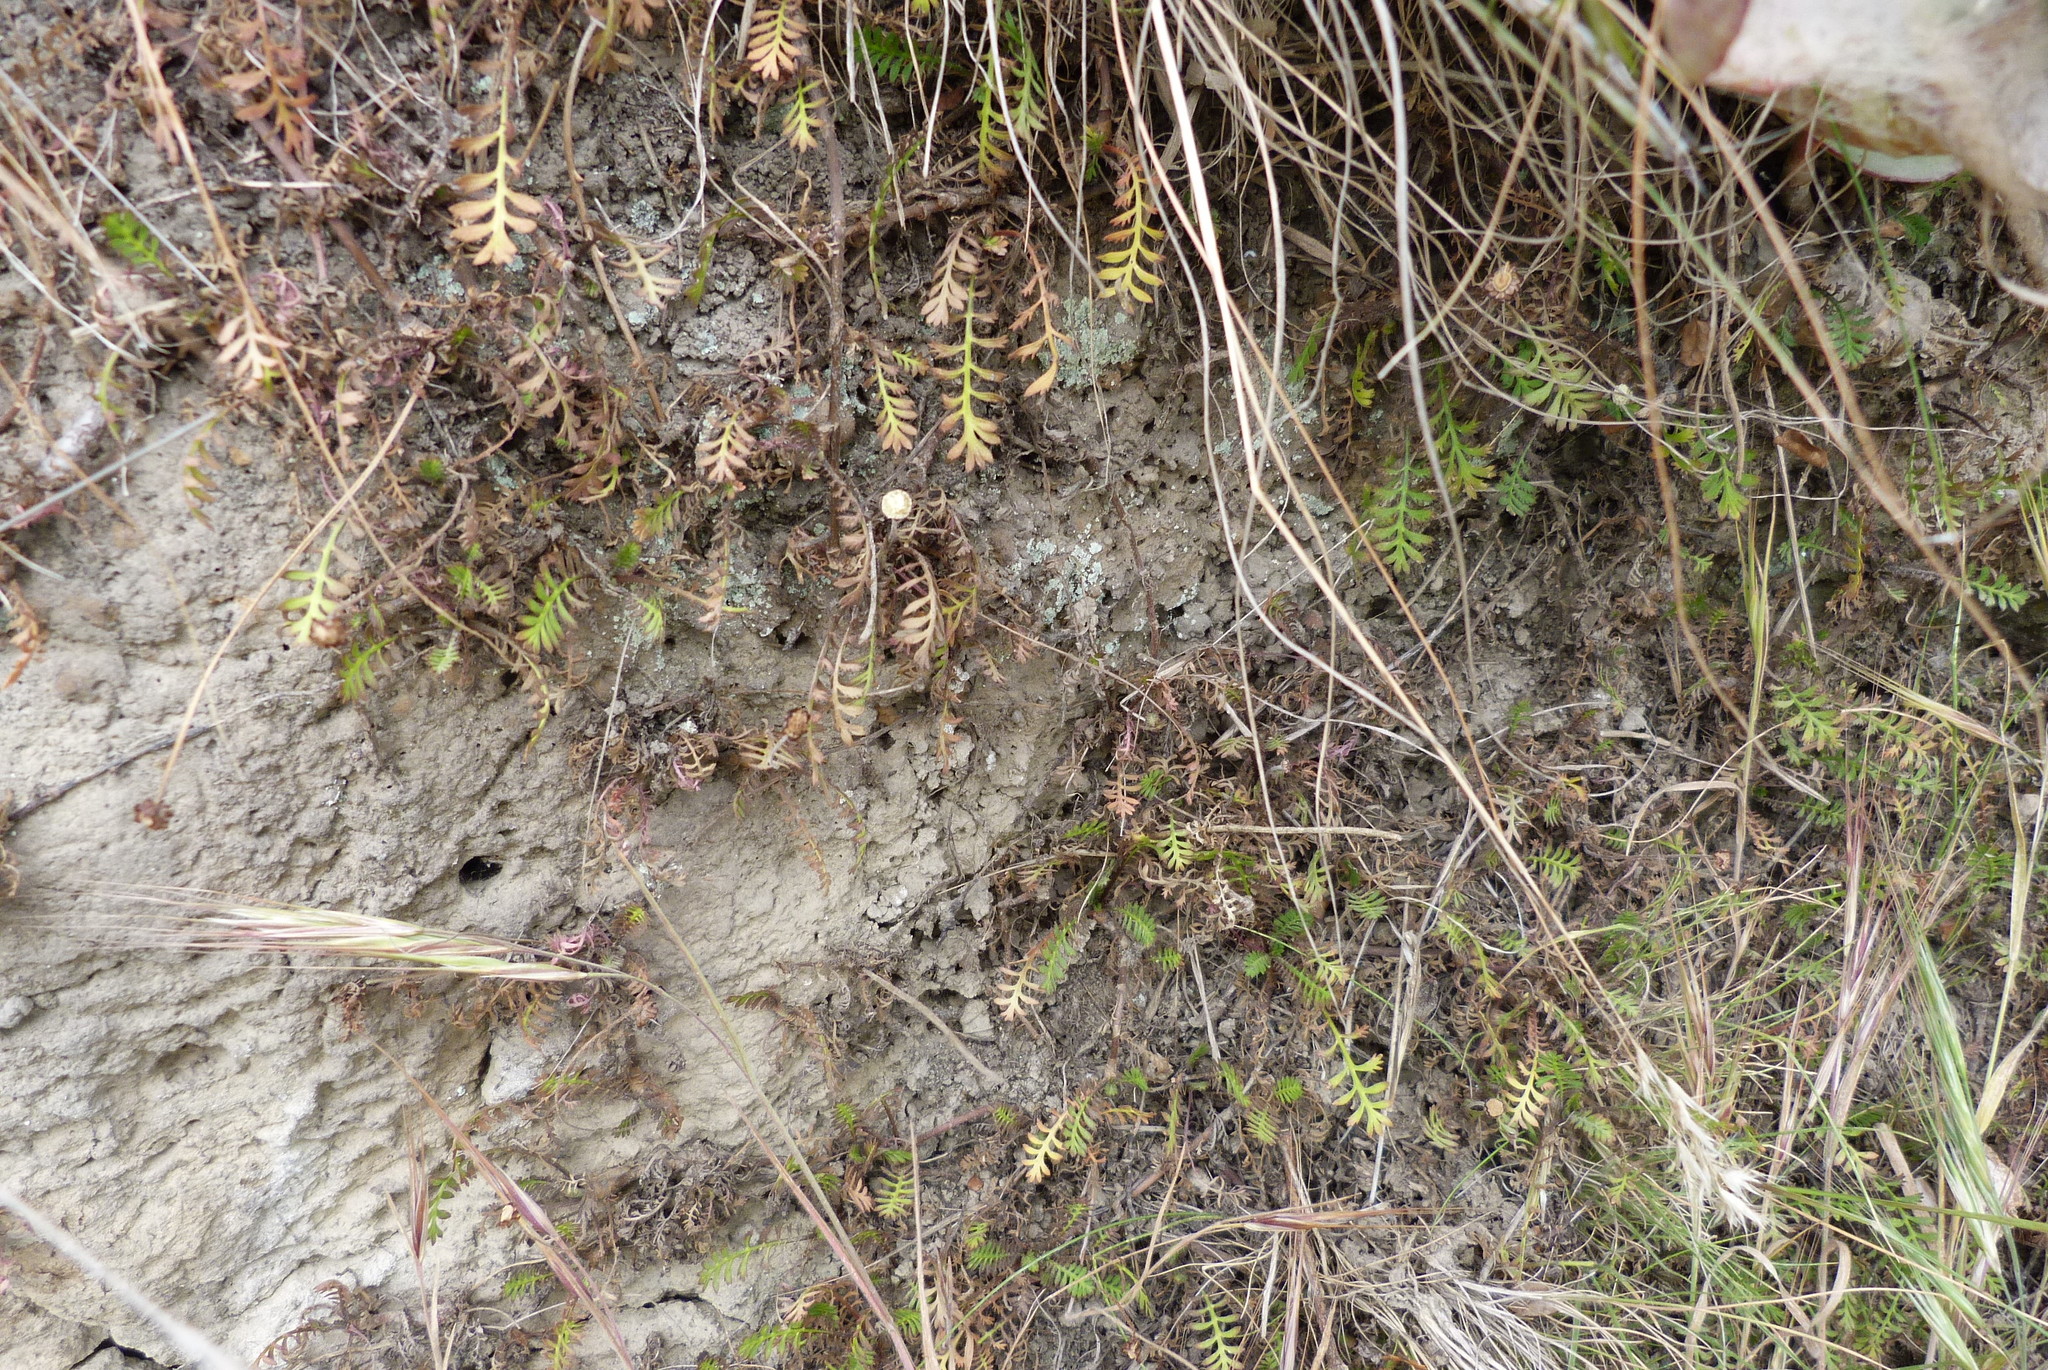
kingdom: Plantae
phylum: Tracheophyta
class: Magnoliopsida
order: Asterales
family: Asteraceae
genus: Leptinella
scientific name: Leptinella minor
